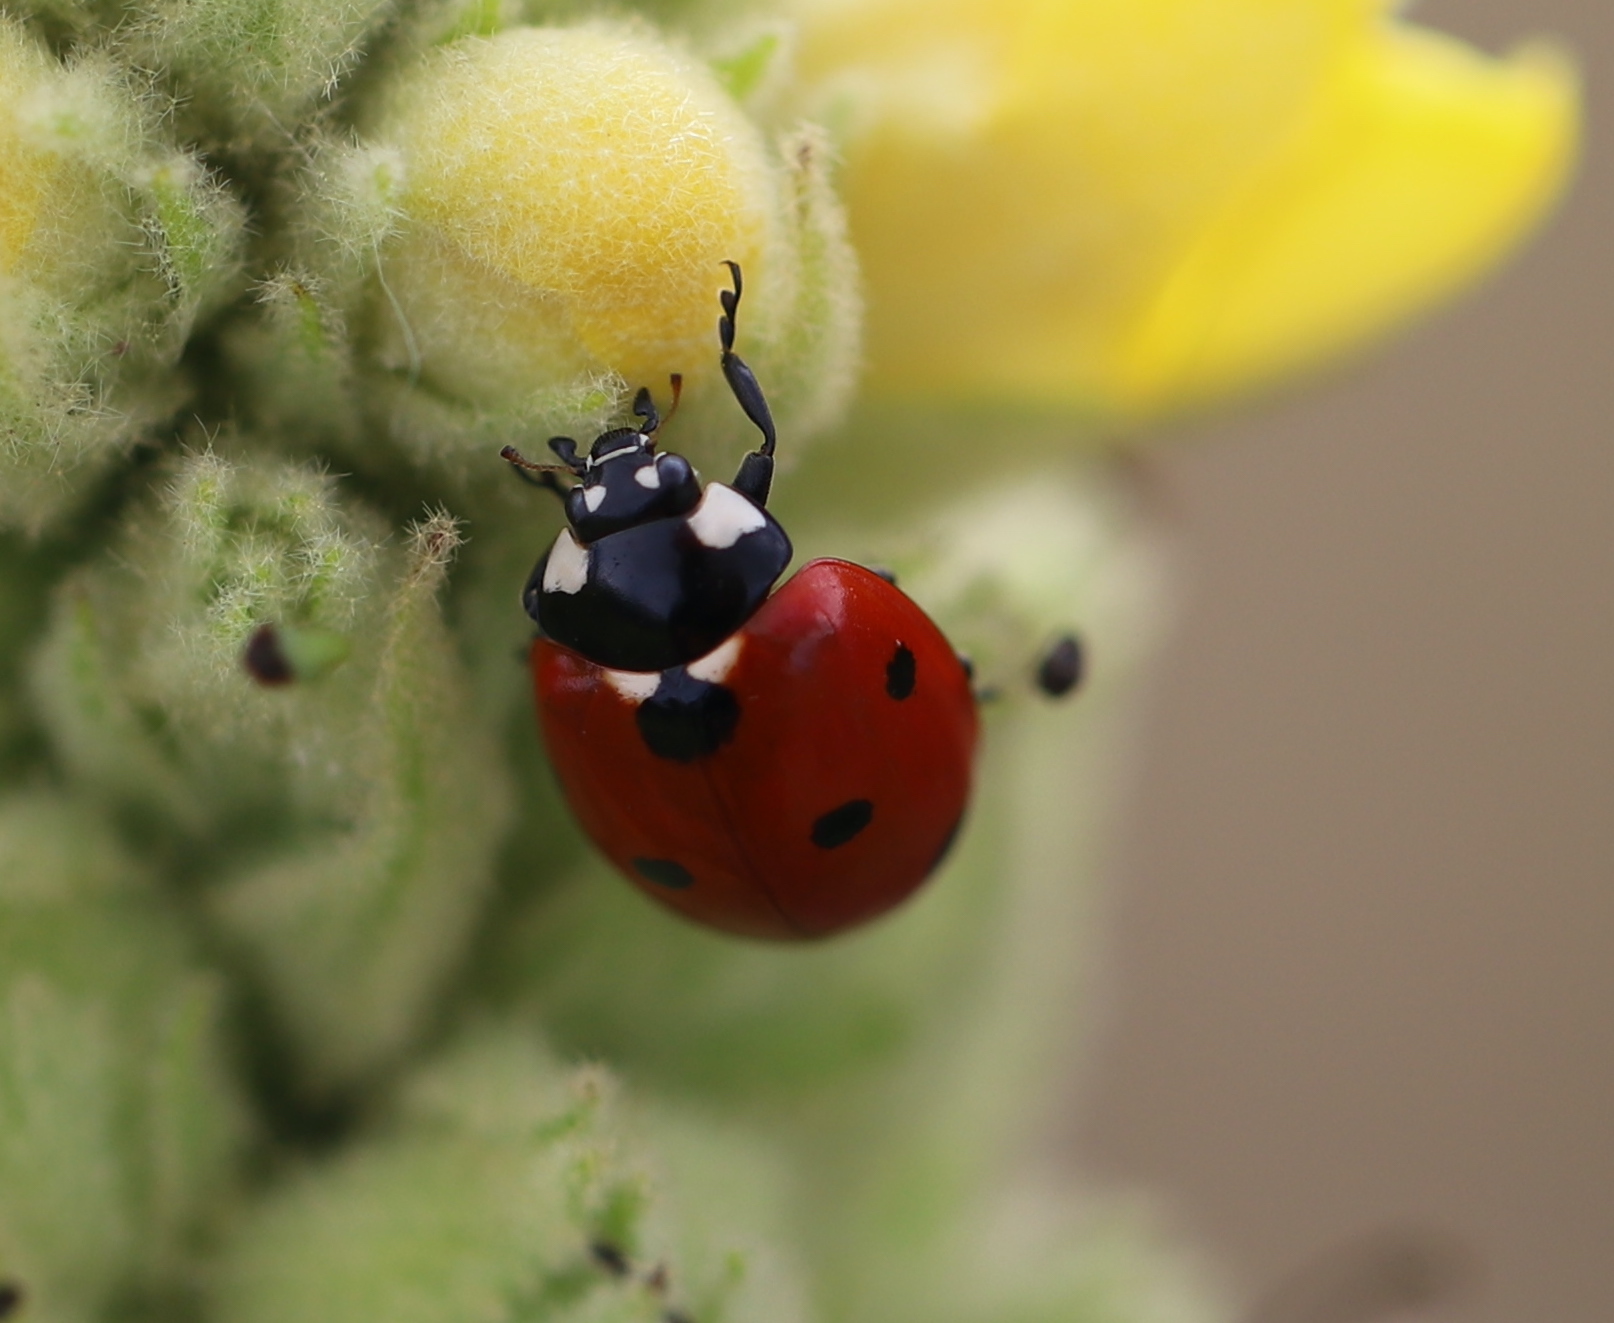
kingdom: Animalia
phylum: Arthropoda
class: Insecta
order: Coleoptera
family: Coccinellidae
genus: Coccinella
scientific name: Coccinella septempunctata
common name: Sevenspotted lady beetle
